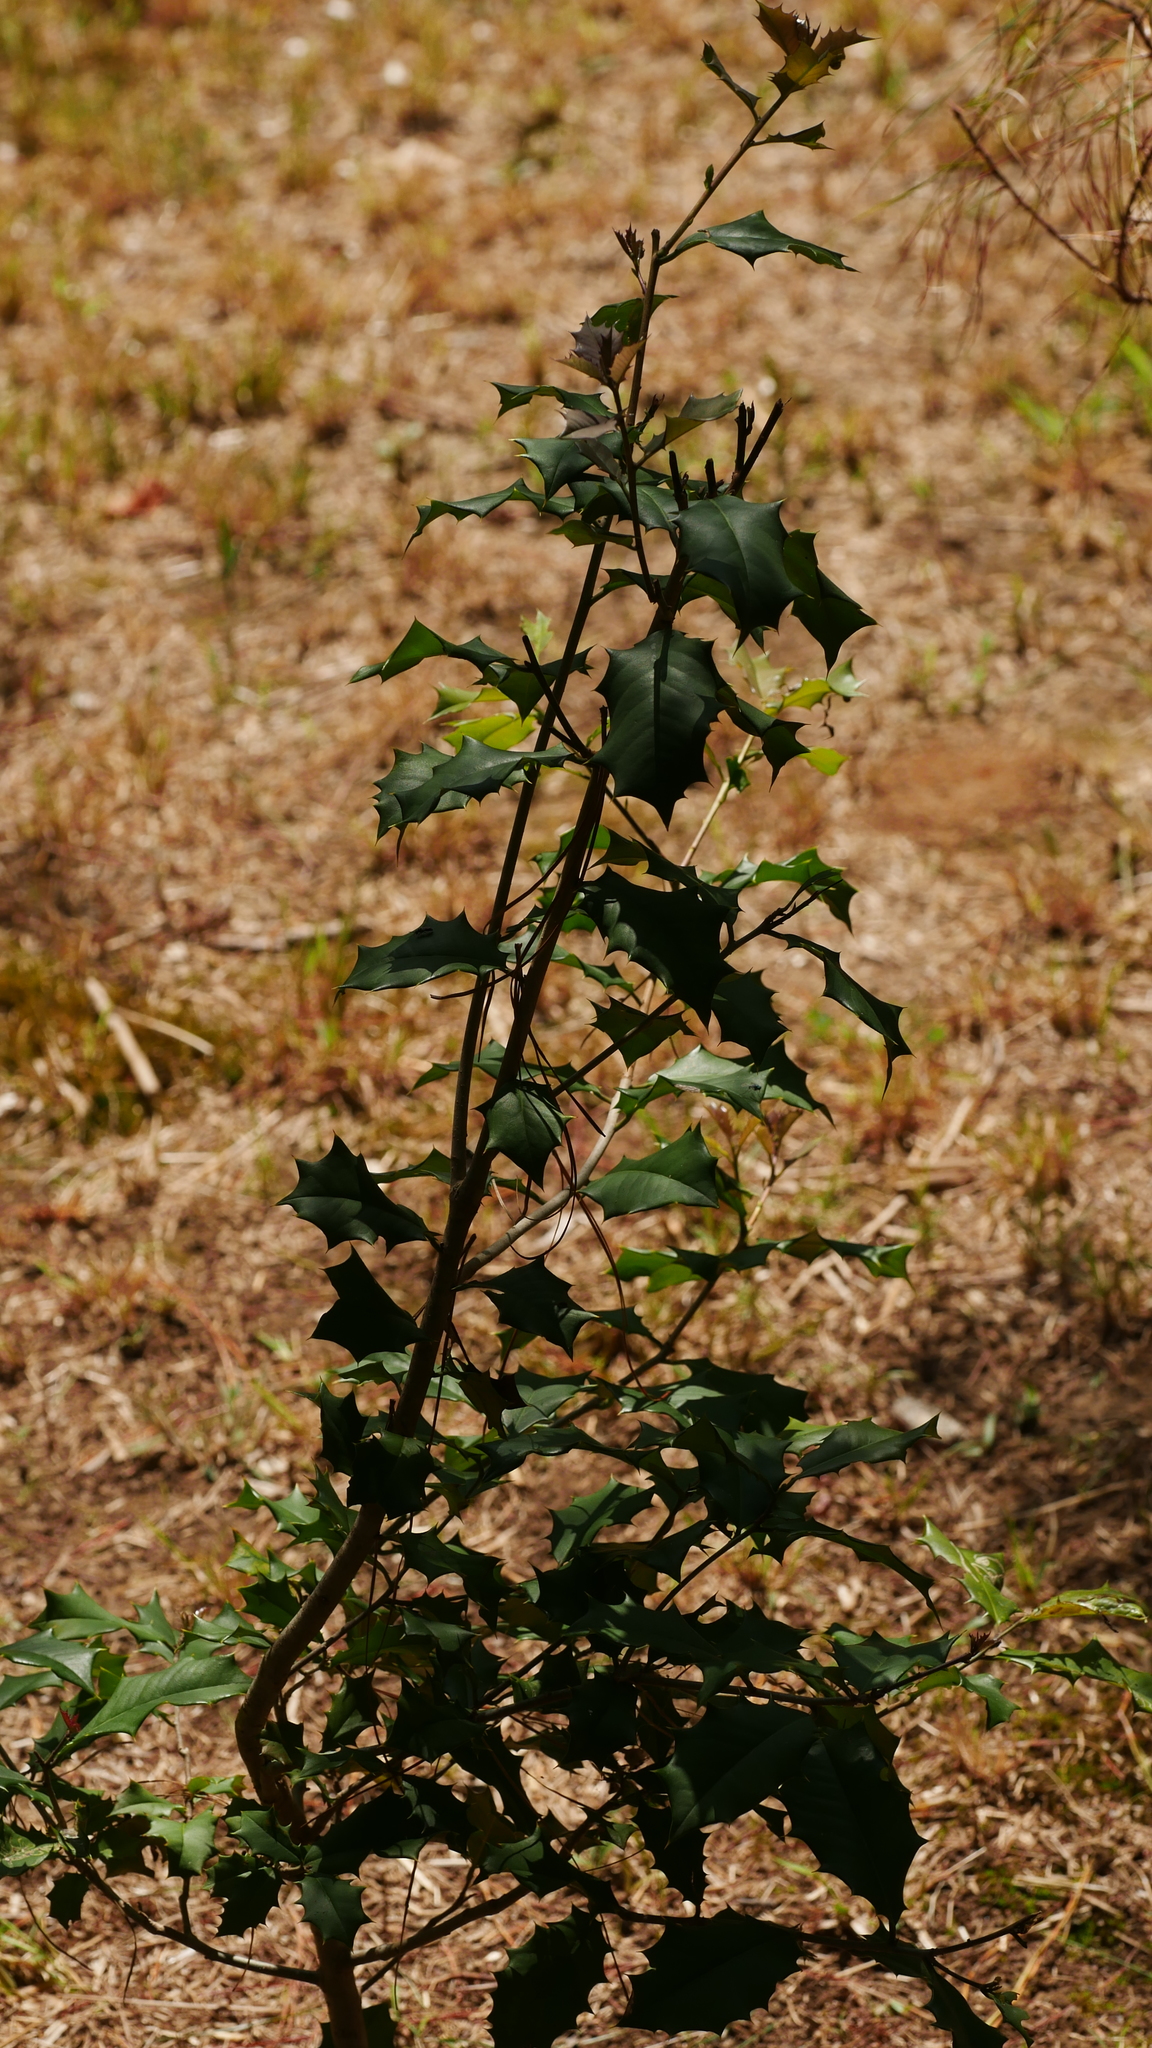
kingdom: Plantae
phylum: Tracheophyta
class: Magnoliopsida
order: Aquifoliales
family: Aquifoliaceae
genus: Ilex
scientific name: Ilex opaca
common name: American holly
